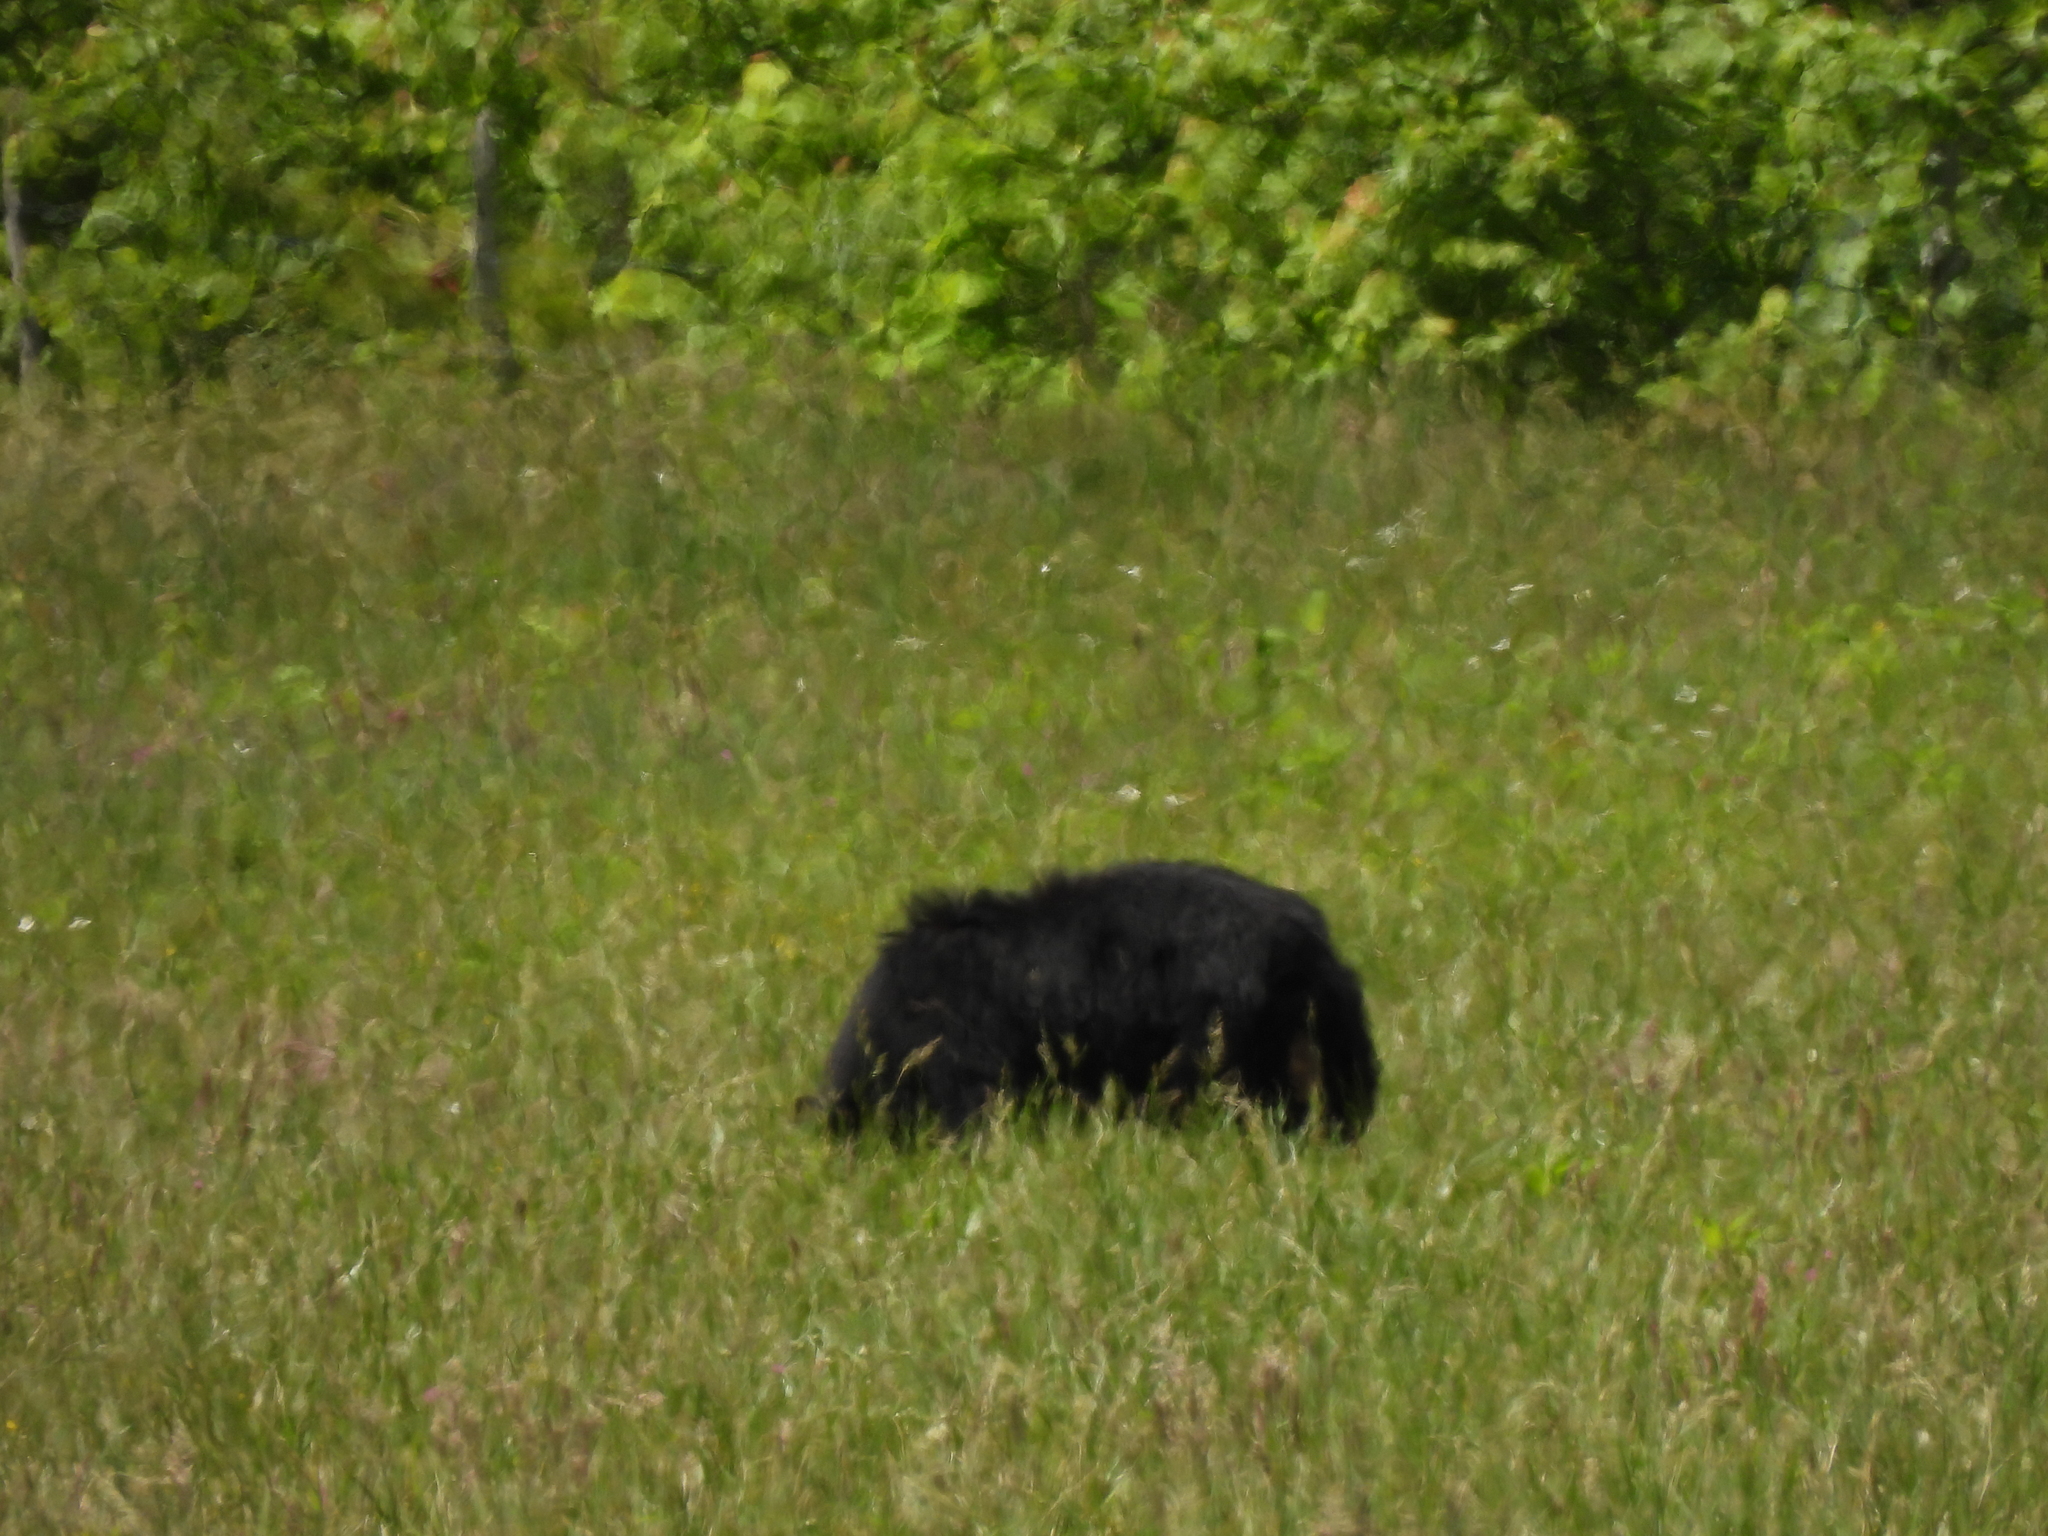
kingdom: Animalia
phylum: Chordata
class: Mammalia
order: Carnivora
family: Ursidae
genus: Ursus
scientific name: Ursus americanus
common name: American black bear
